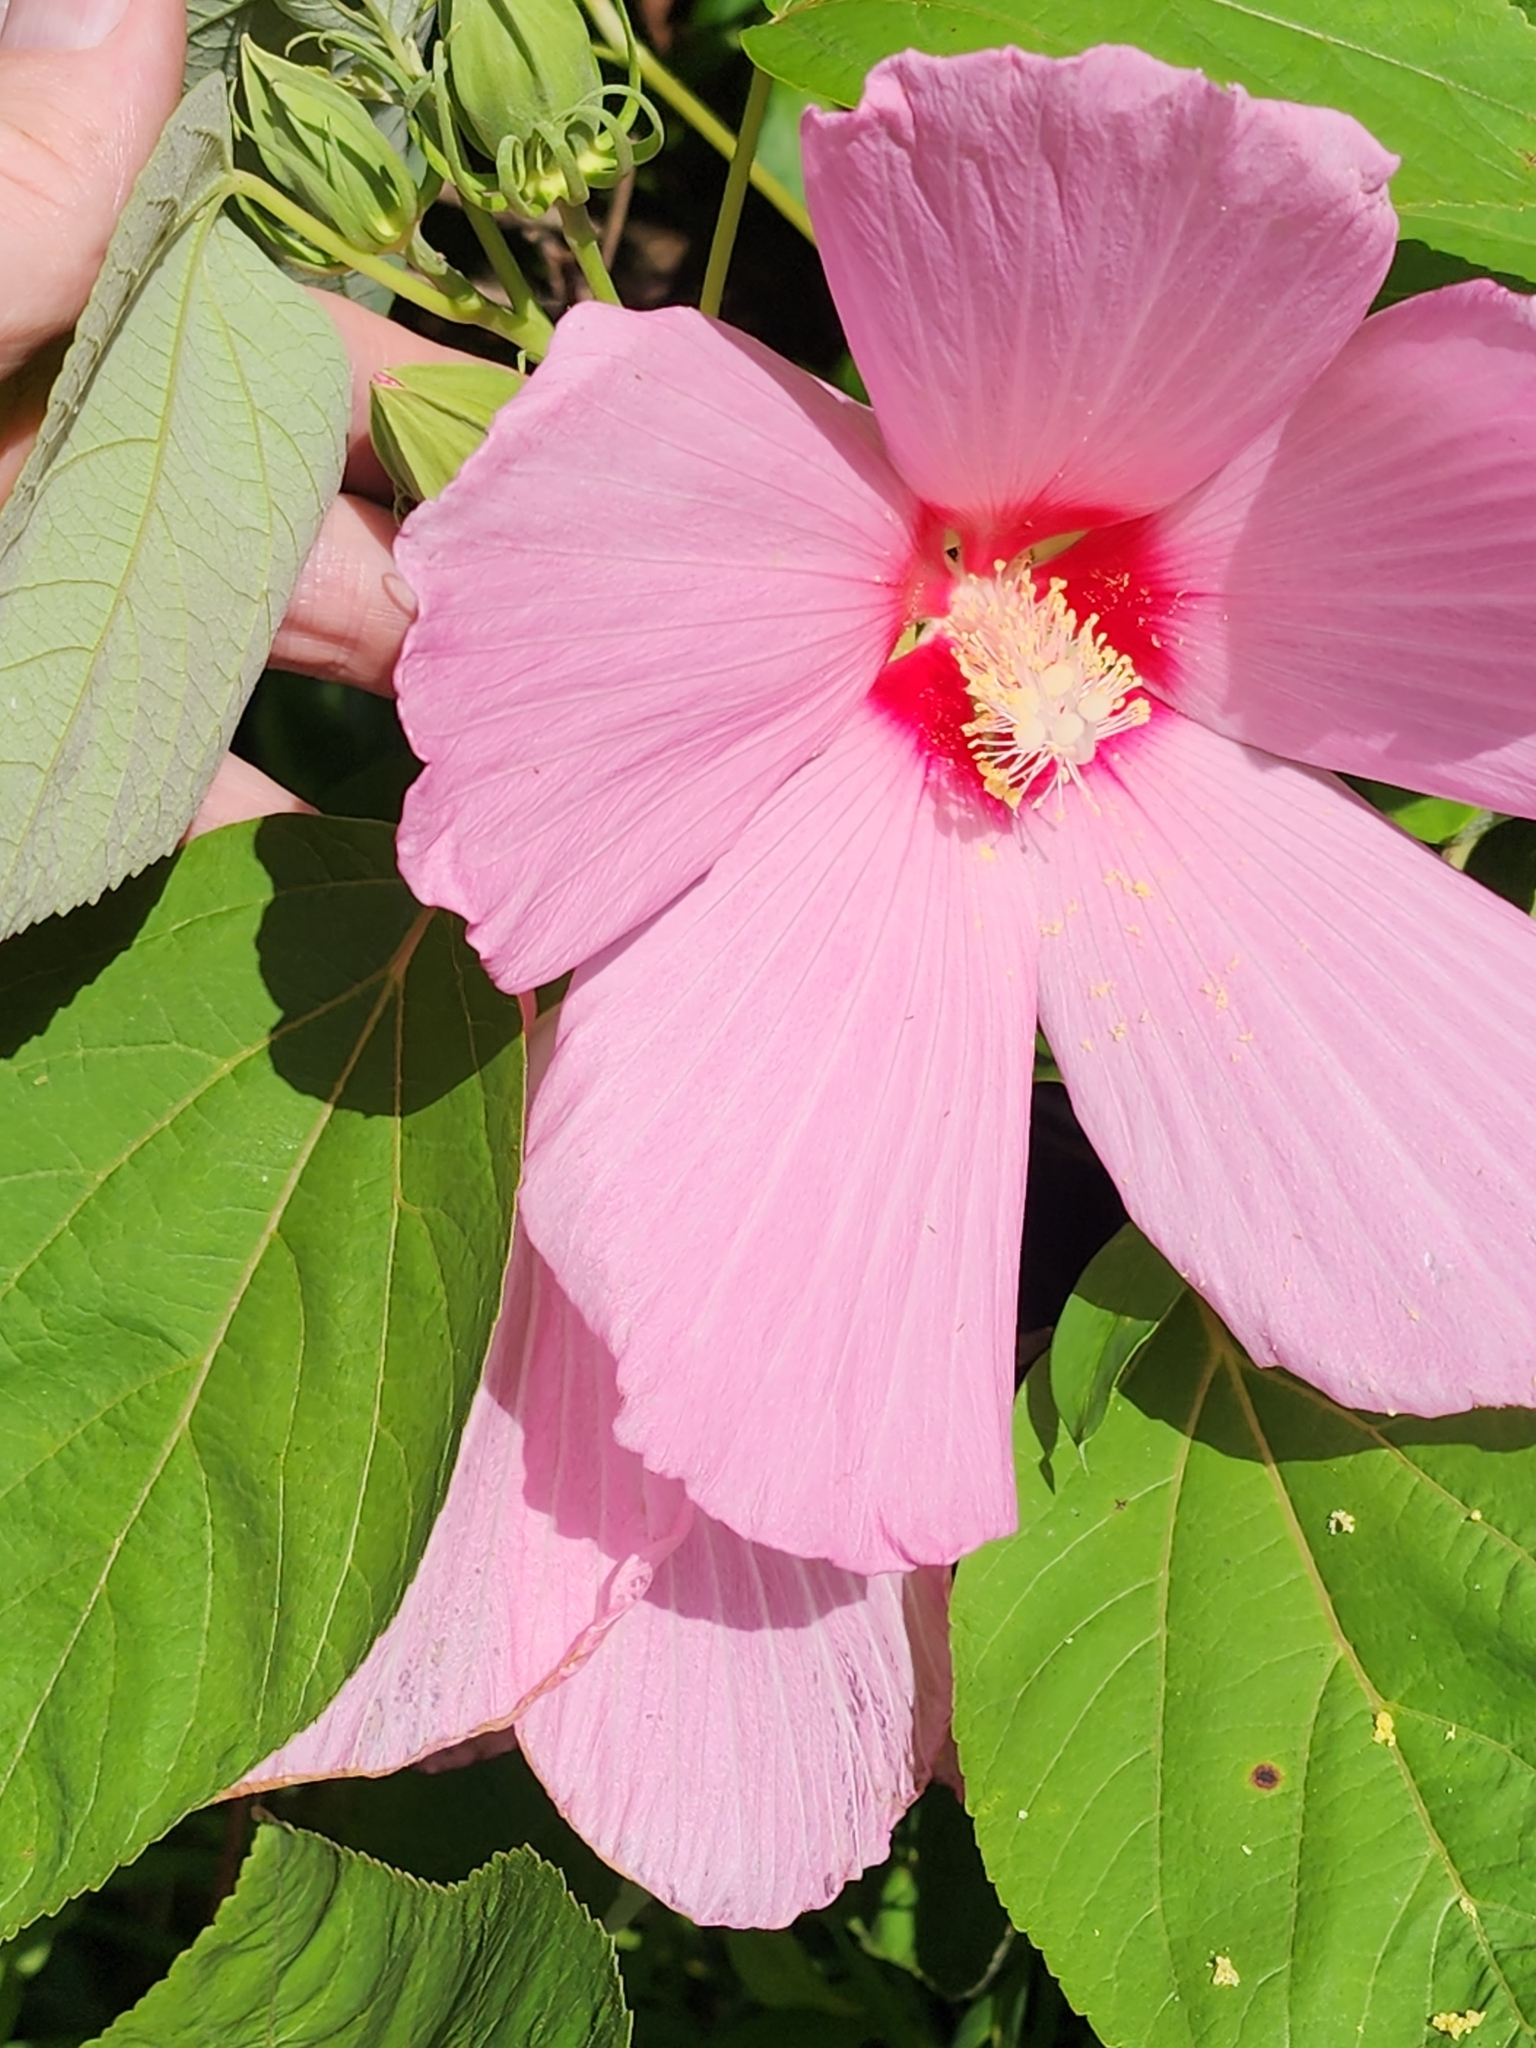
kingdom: Plantae
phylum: Tracheophyta
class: Magnoliopsida
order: Malvales
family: Malvaceae
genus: Hibiscus
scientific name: Hibiscus moscheutos
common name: Common rose-mallow
